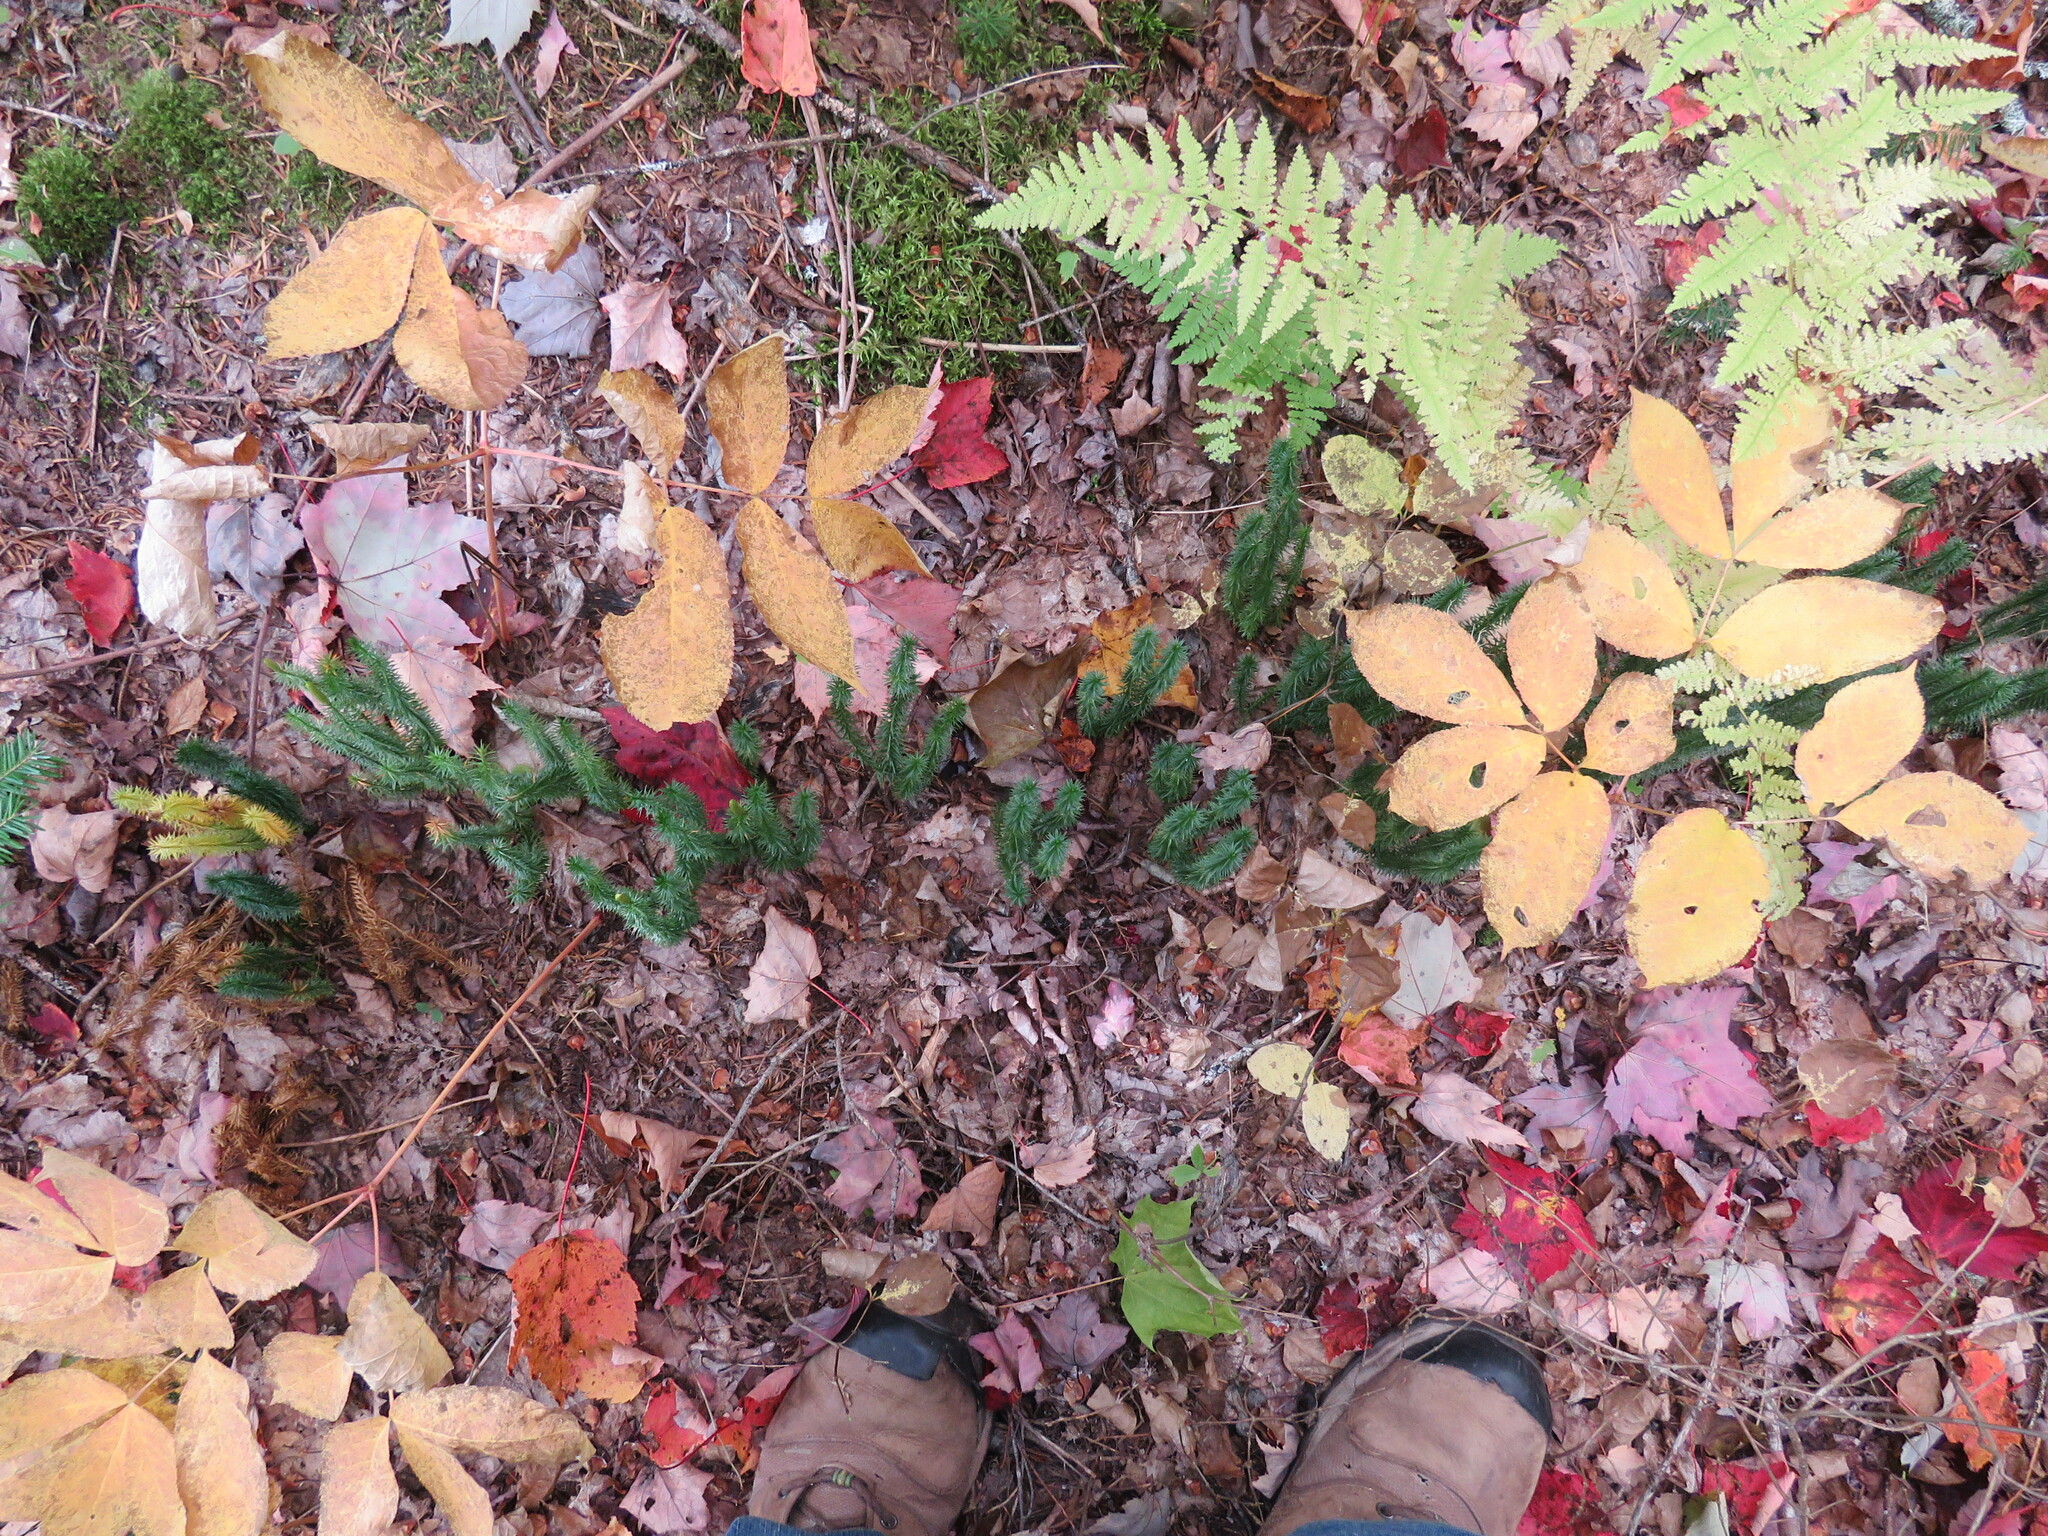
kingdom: Plantae
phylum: Tracheophyta
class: Lycopodiopsida
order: Lycopodiales
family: Lycopodiaceae
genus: Huperzia
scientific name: Huperzia lucidula
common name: Shining clubmoss
